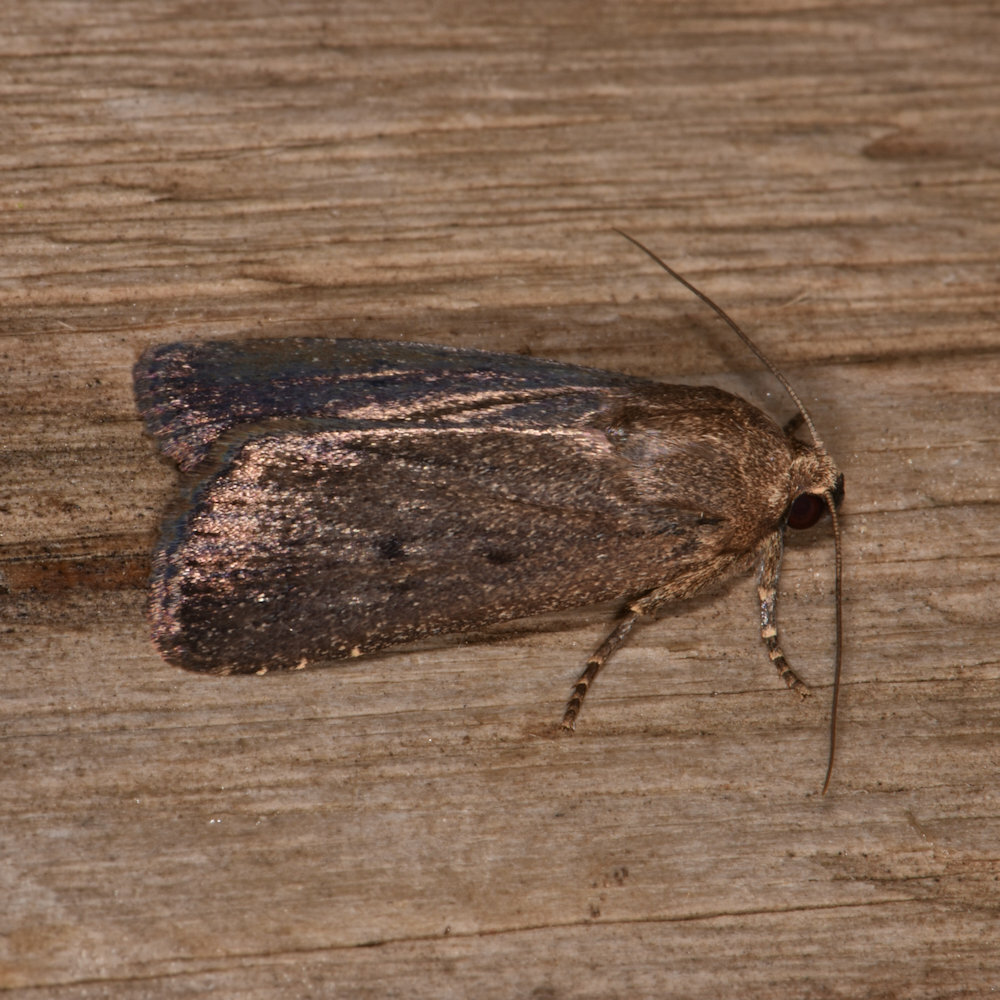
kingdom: Animalia
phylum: Arthropoda
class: Insecta
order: Lepidoptera
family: Noctuidae
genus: Amphipyra
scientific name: Amphipyra tragopoginis
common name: Mouse moth
